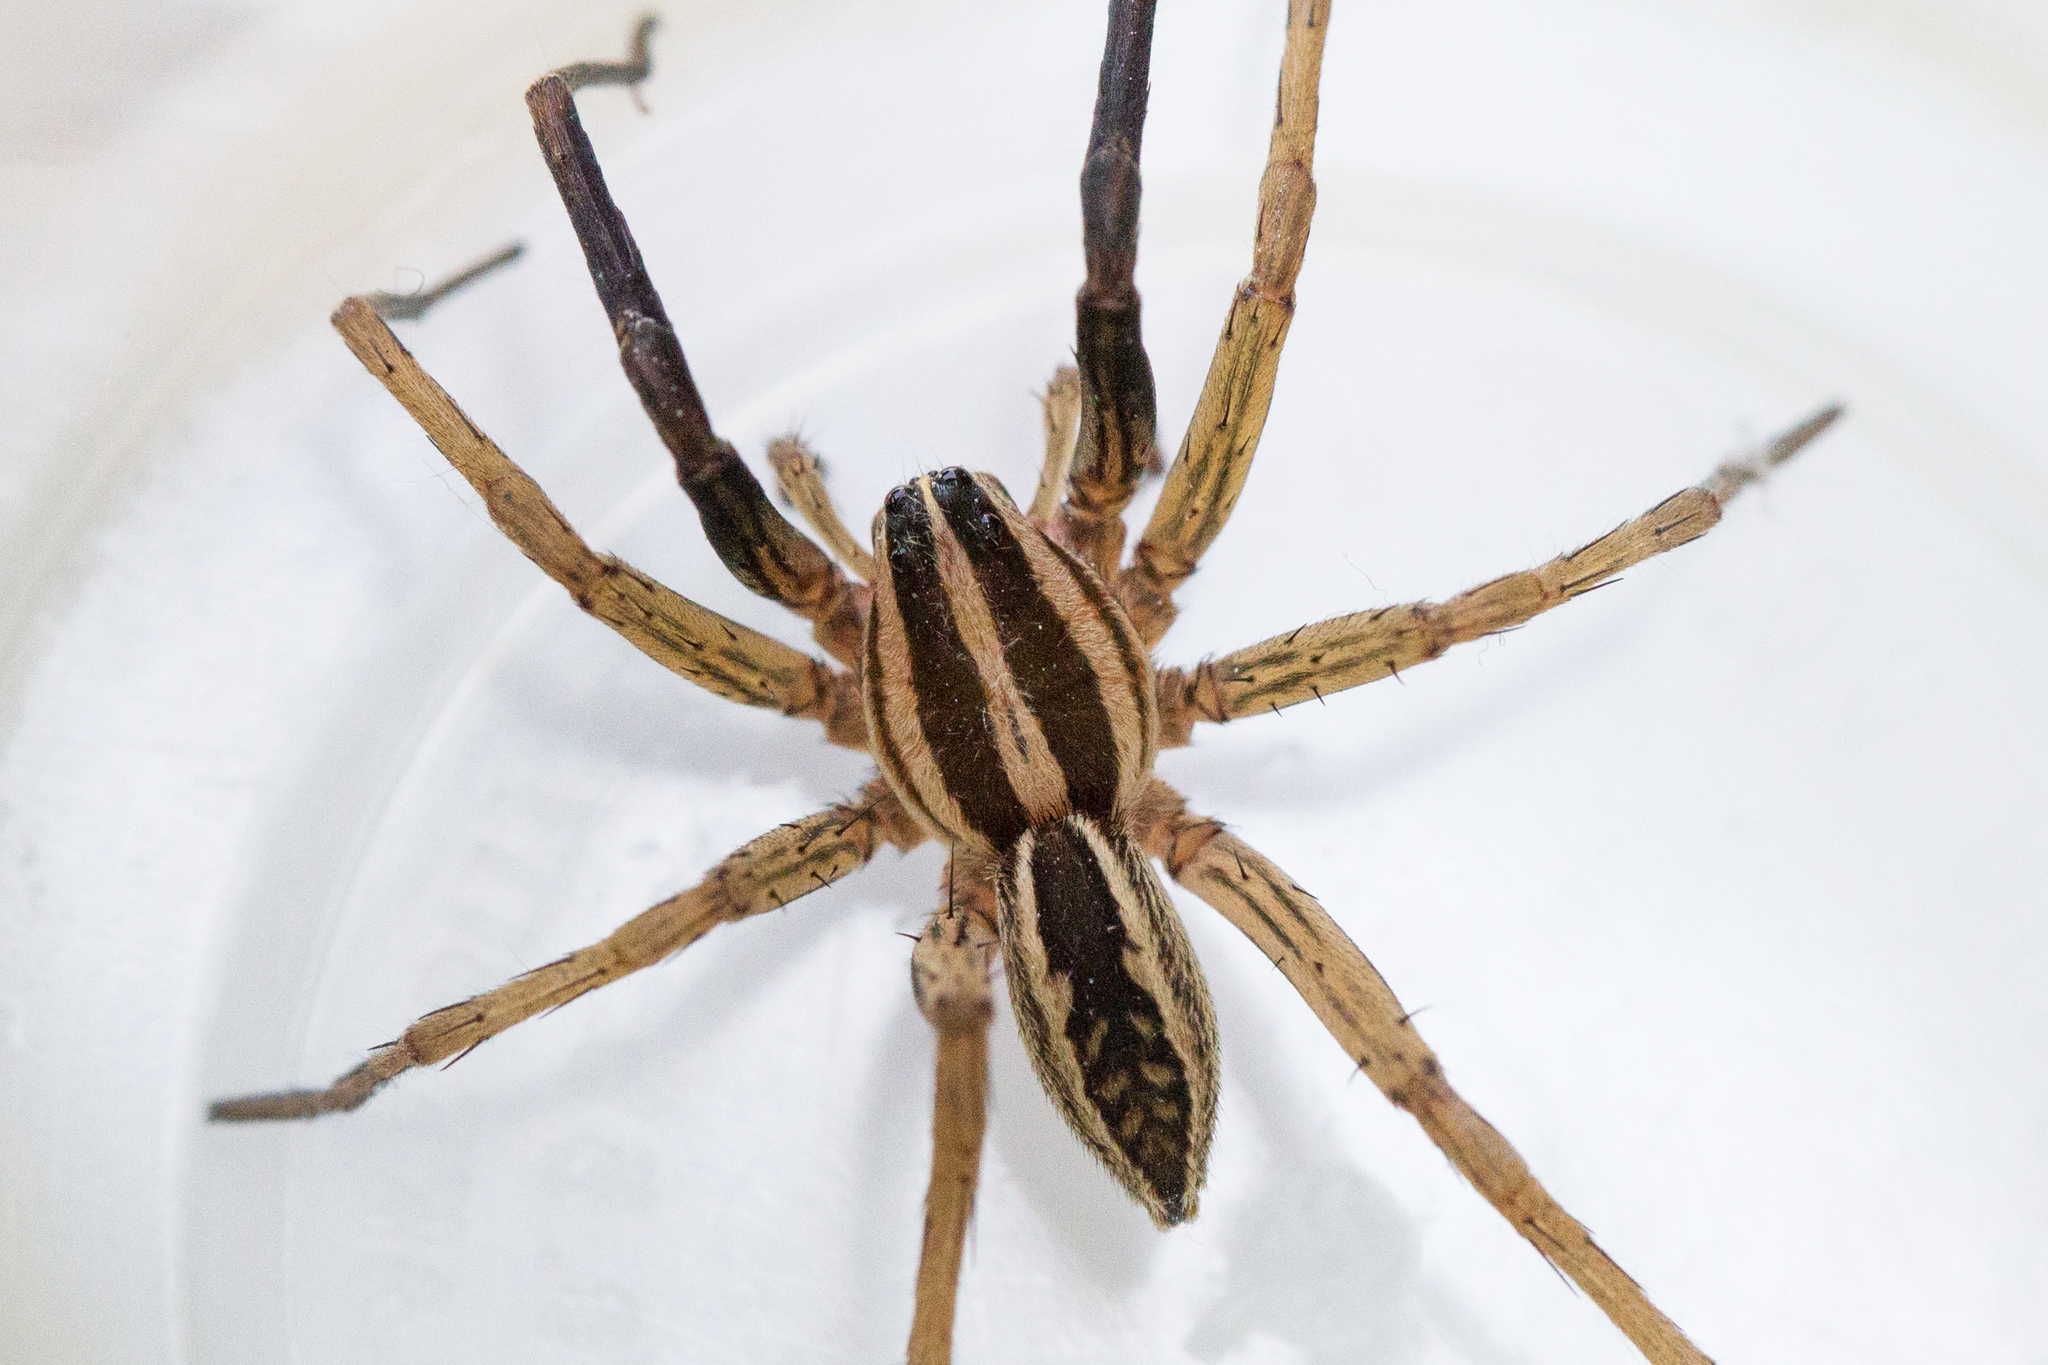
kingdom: Animalia
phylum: Arthropoda
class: Arachnida
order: Araneae
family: Lycosidae
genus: Rabidosa
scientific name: Rabidosa rabida
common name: Rabid wolf spider
